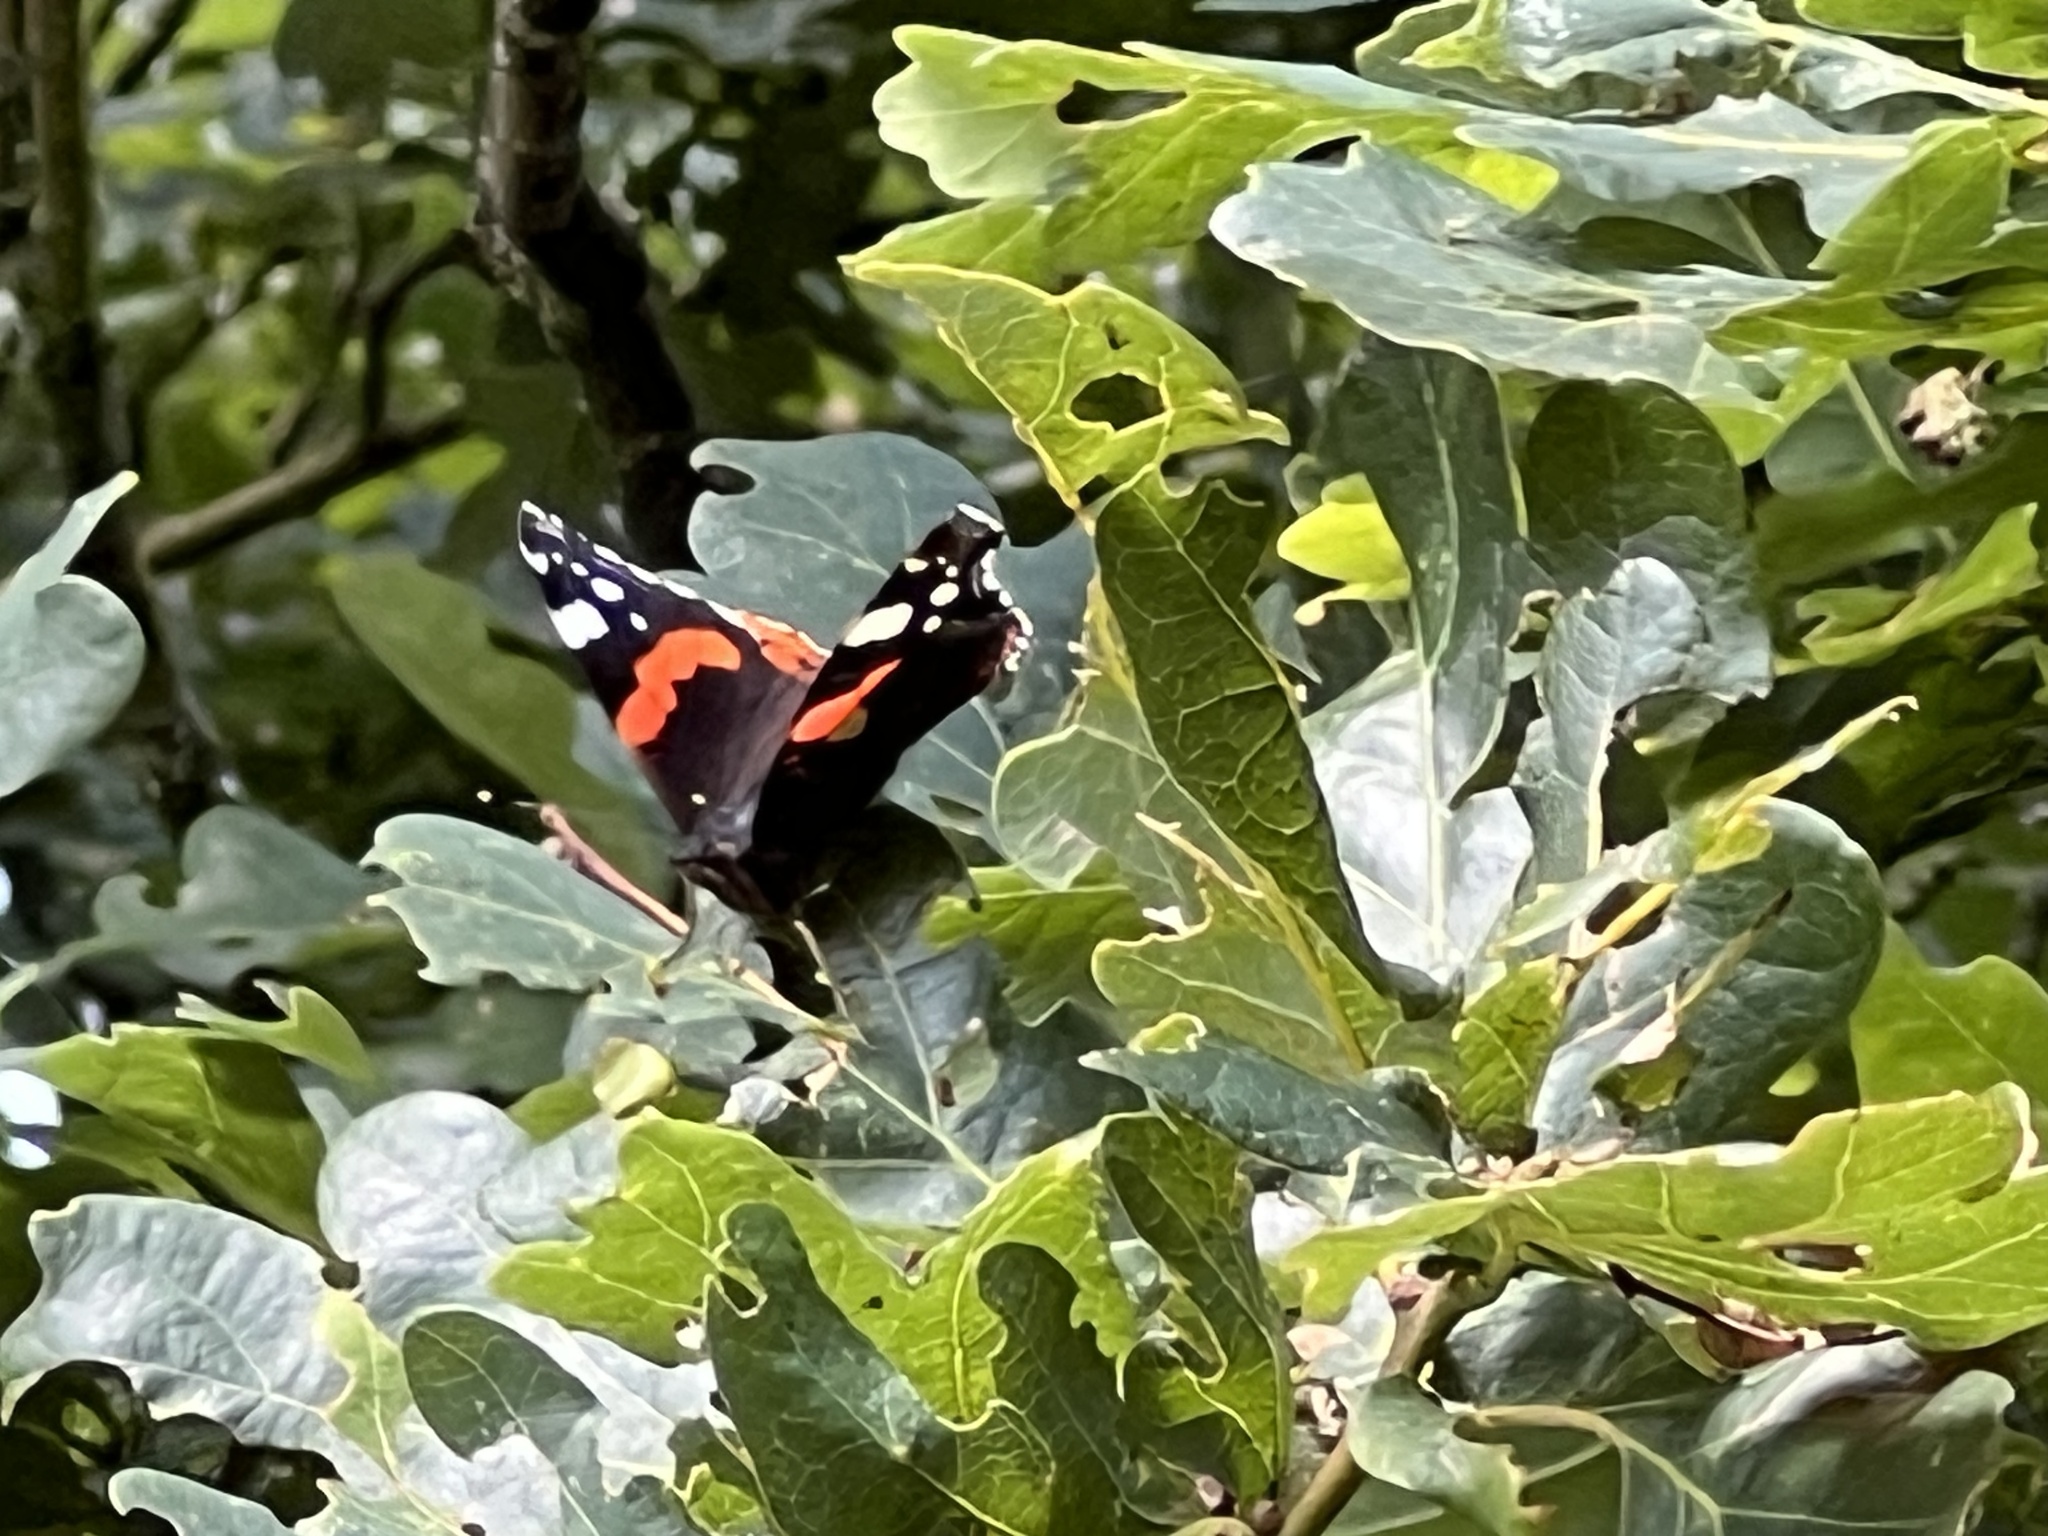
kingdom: Animalia
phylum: Arthropoda
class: Insecta
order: Lepidoptera
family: Nymphalidae
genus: Vanessa
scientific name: Vanessa atalanta
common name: Red admiral
